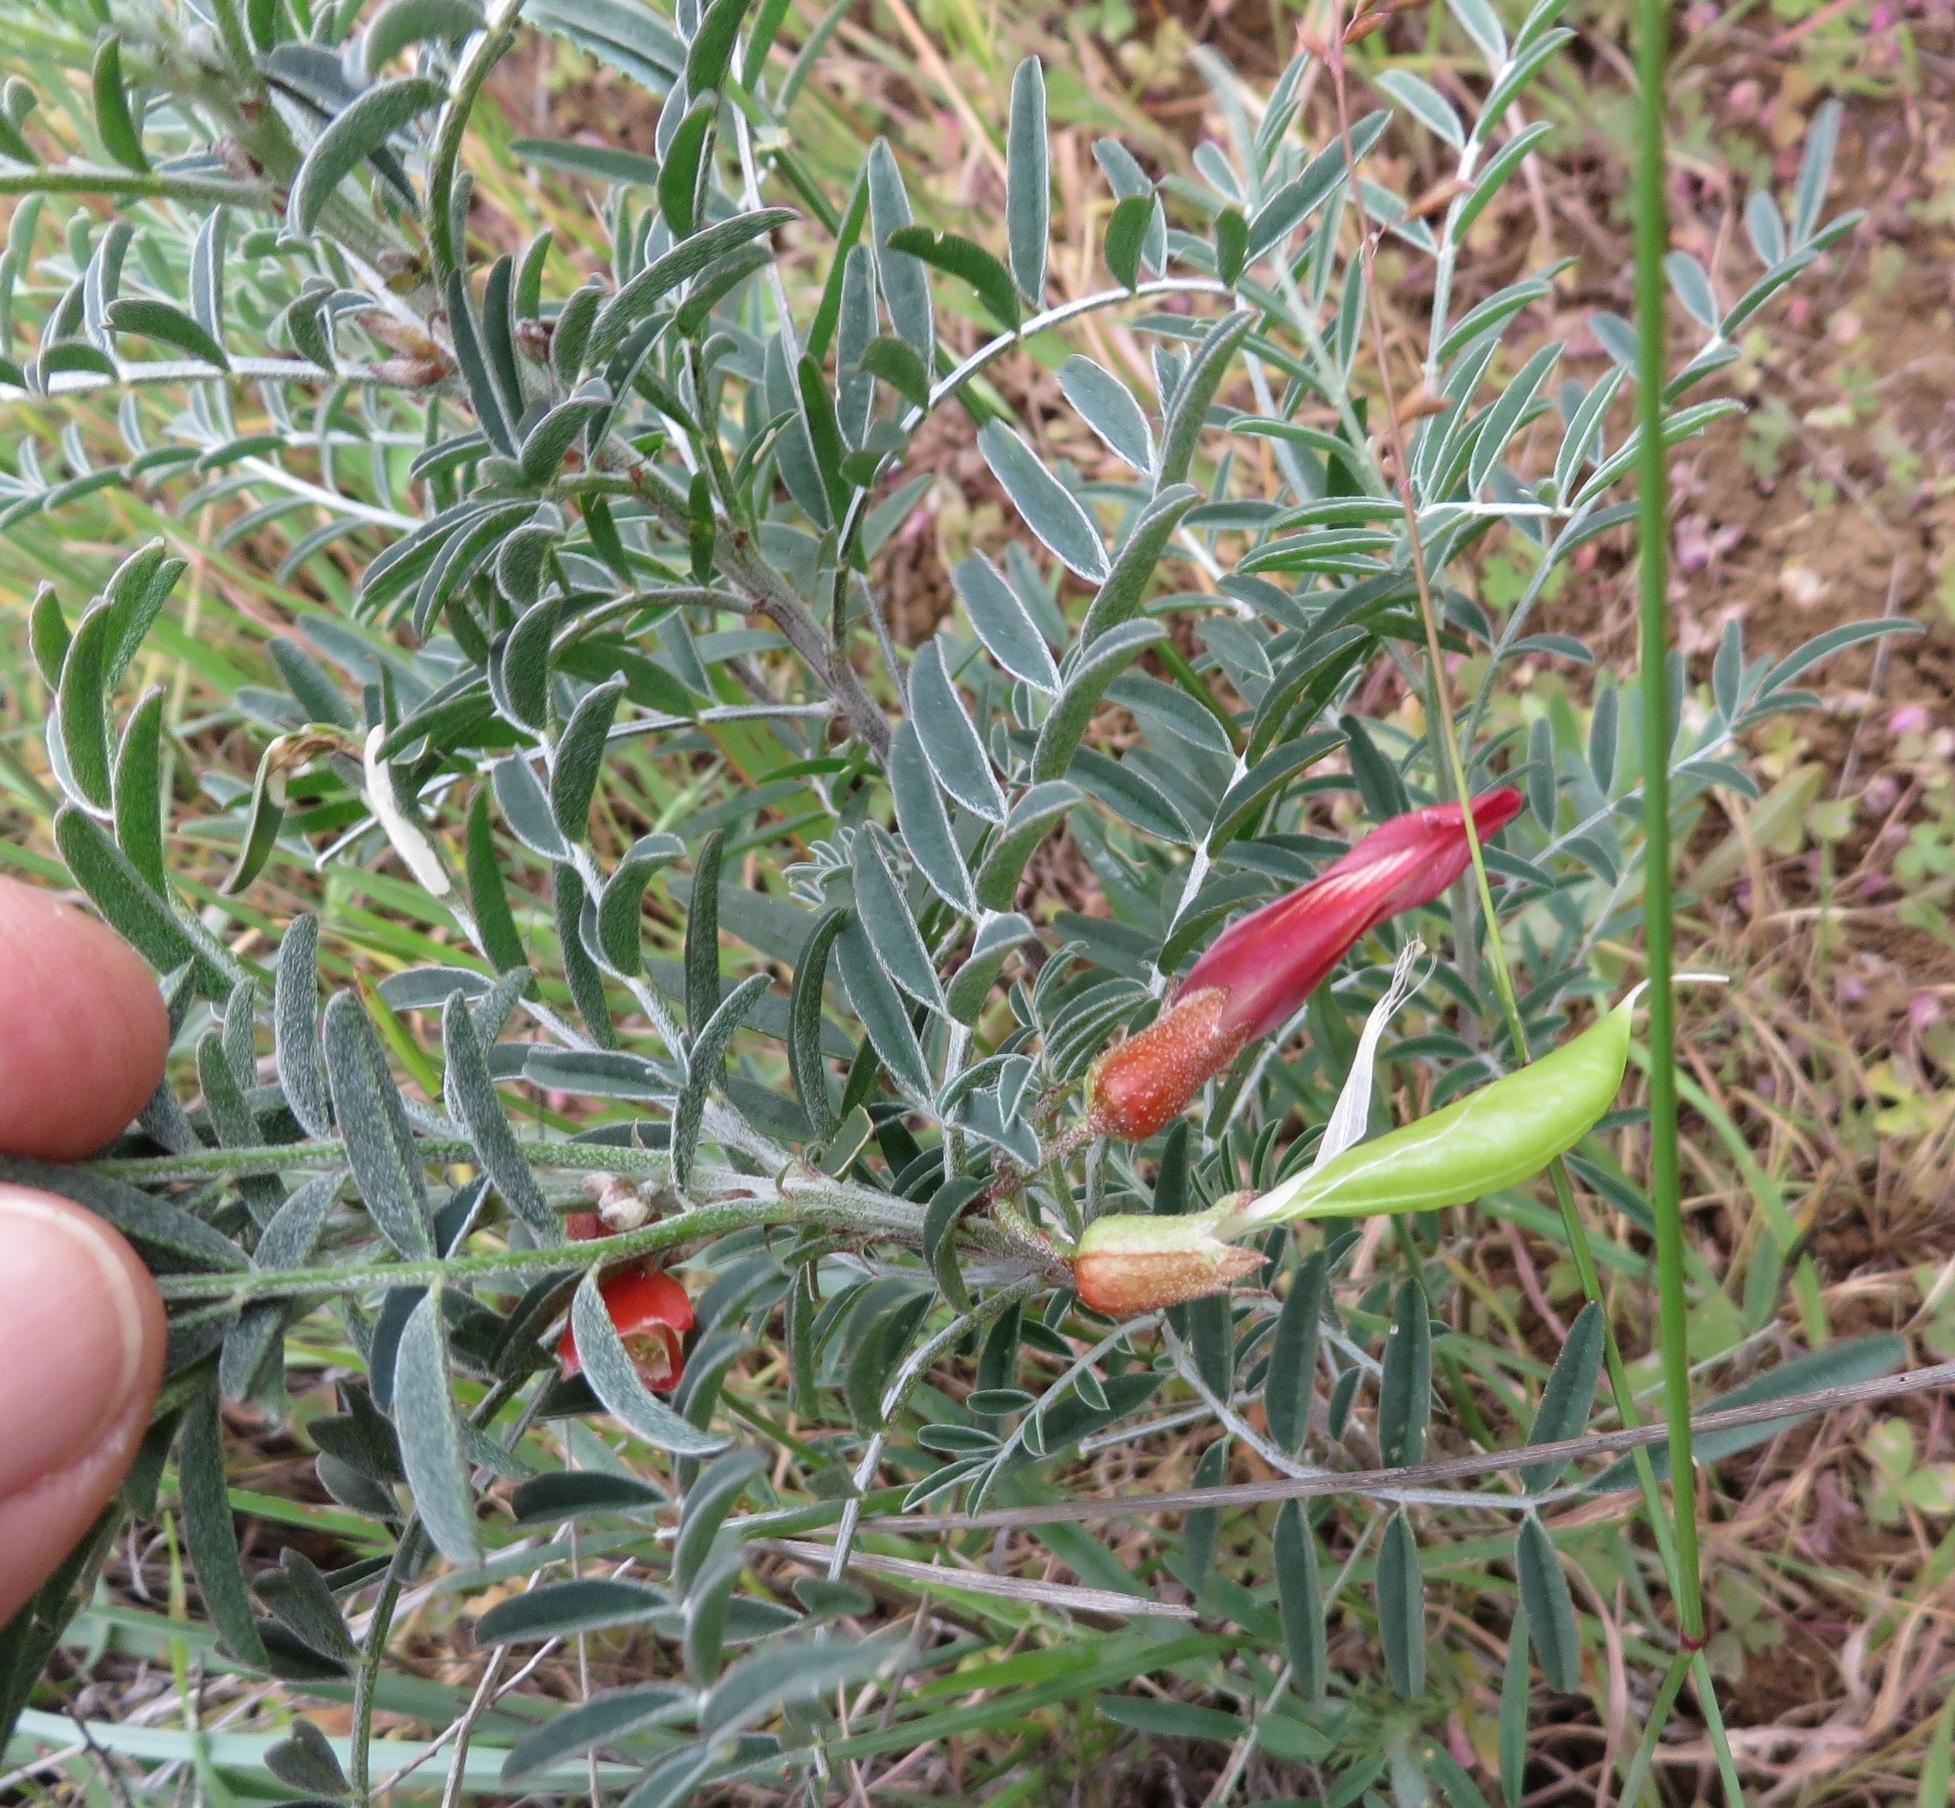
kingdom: Plantae
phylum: Tracheophyta
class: Magnoliopsida
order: Fabales
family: Fabaceae
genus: Lessertia
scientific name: Lessertia frutescens
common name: Balloon-pea
